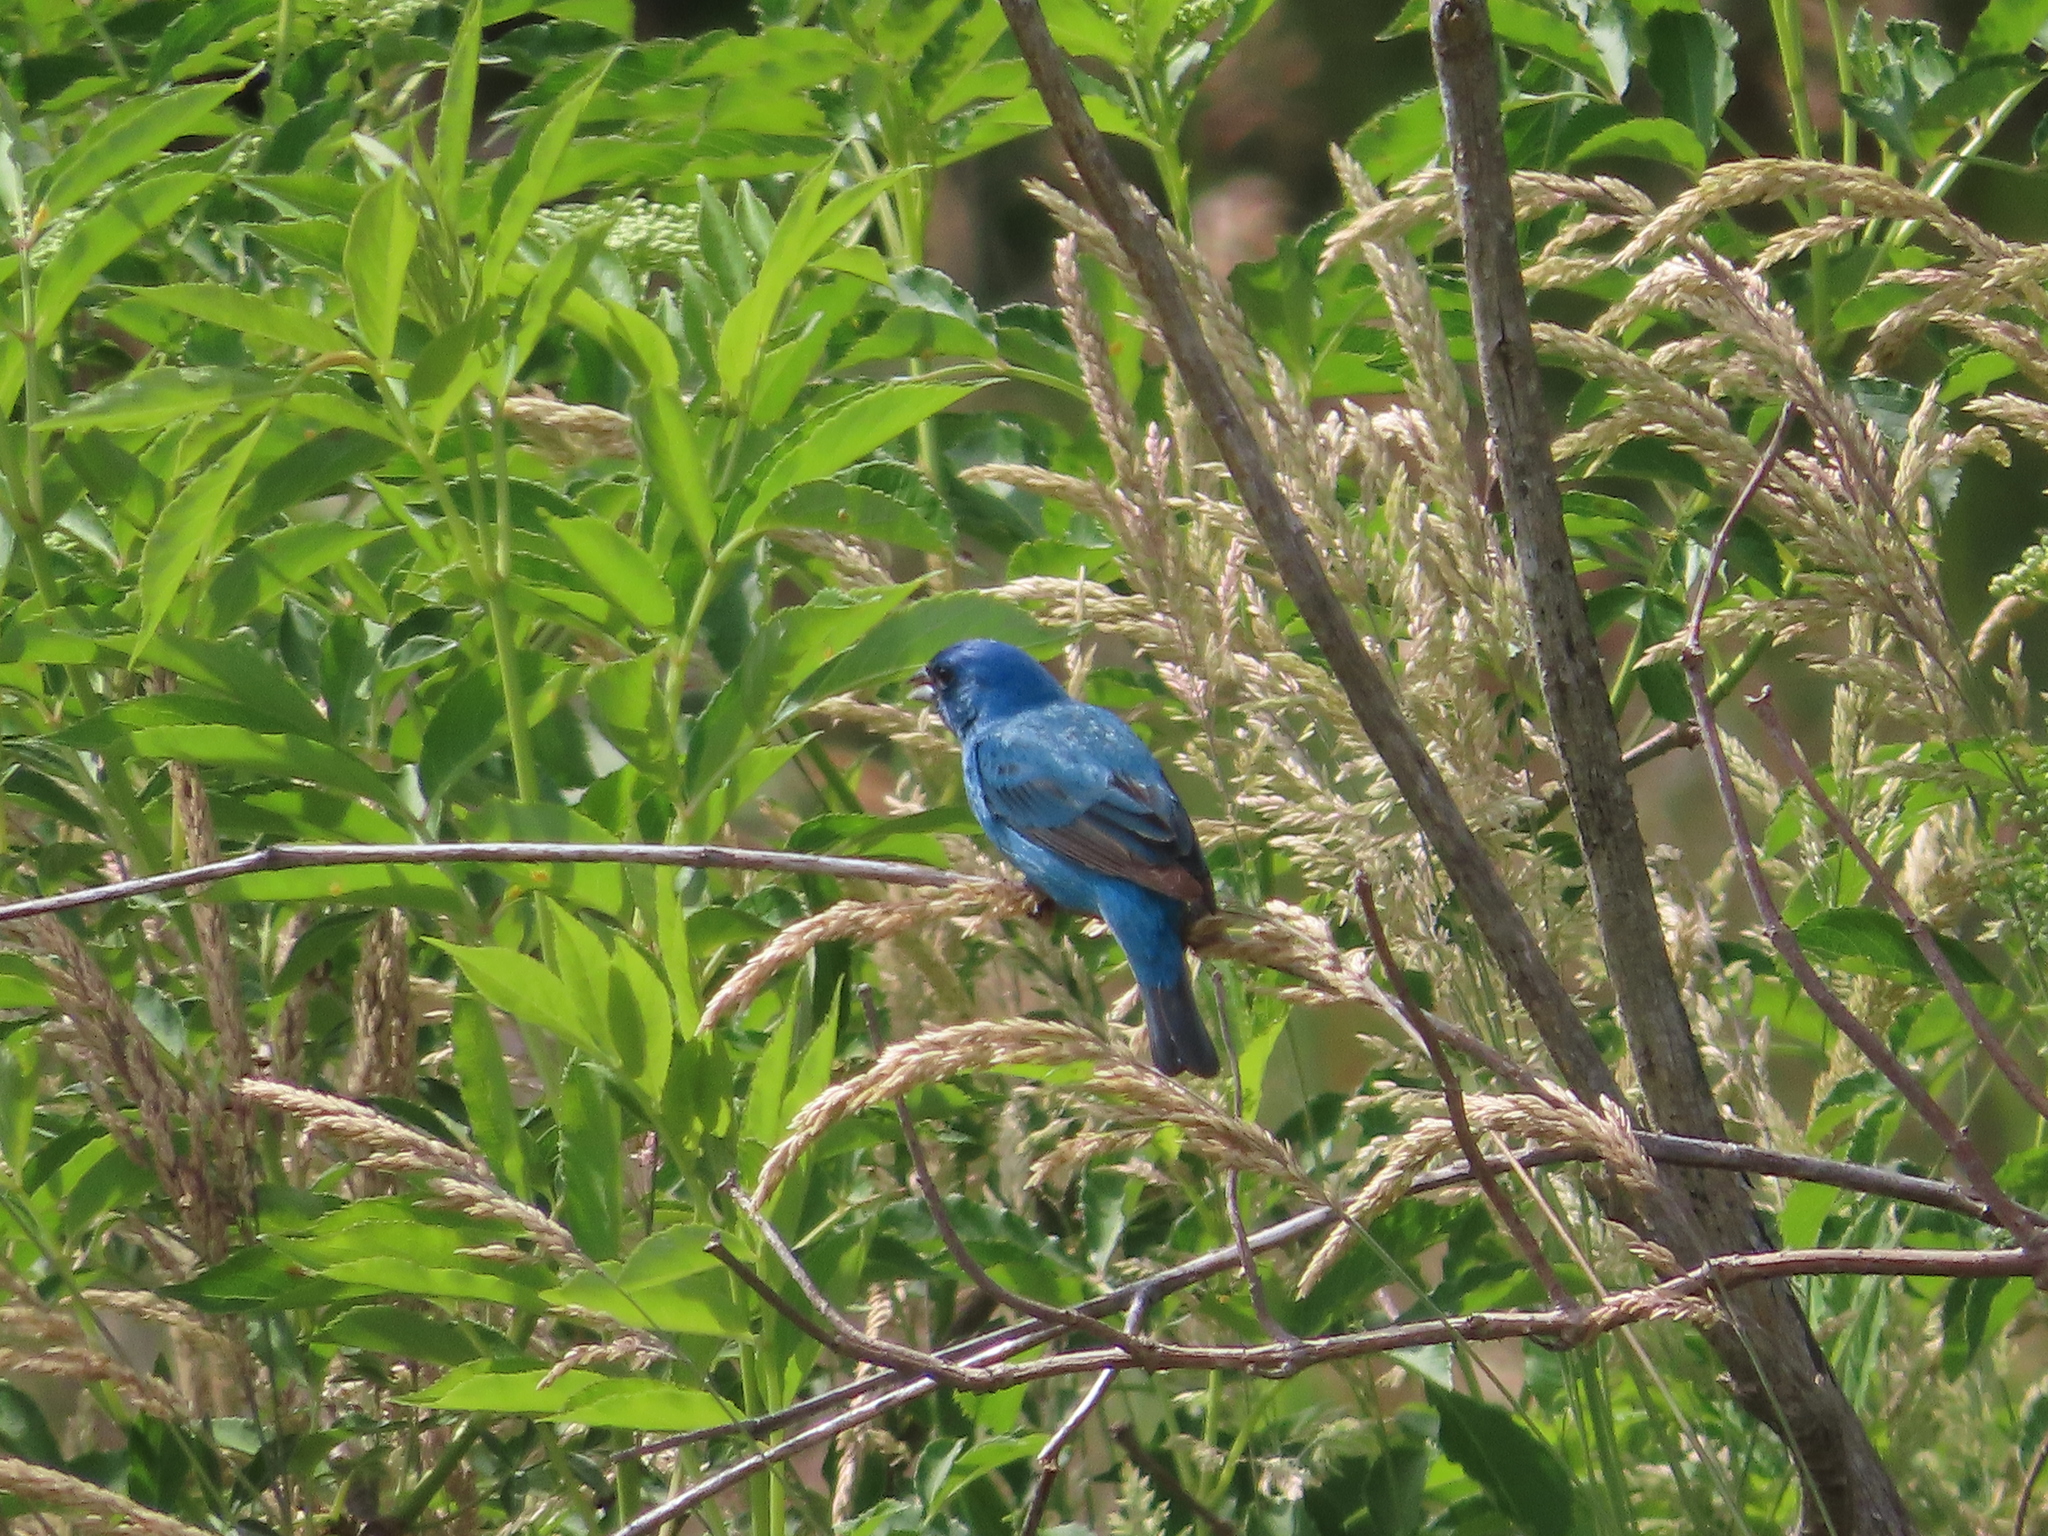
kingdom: Animalia
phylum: Chordata
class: Aves
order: Passeriformes
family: Cardinalidae
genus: Passerina
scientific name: Passerina cyanea
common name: Indigo bunting
